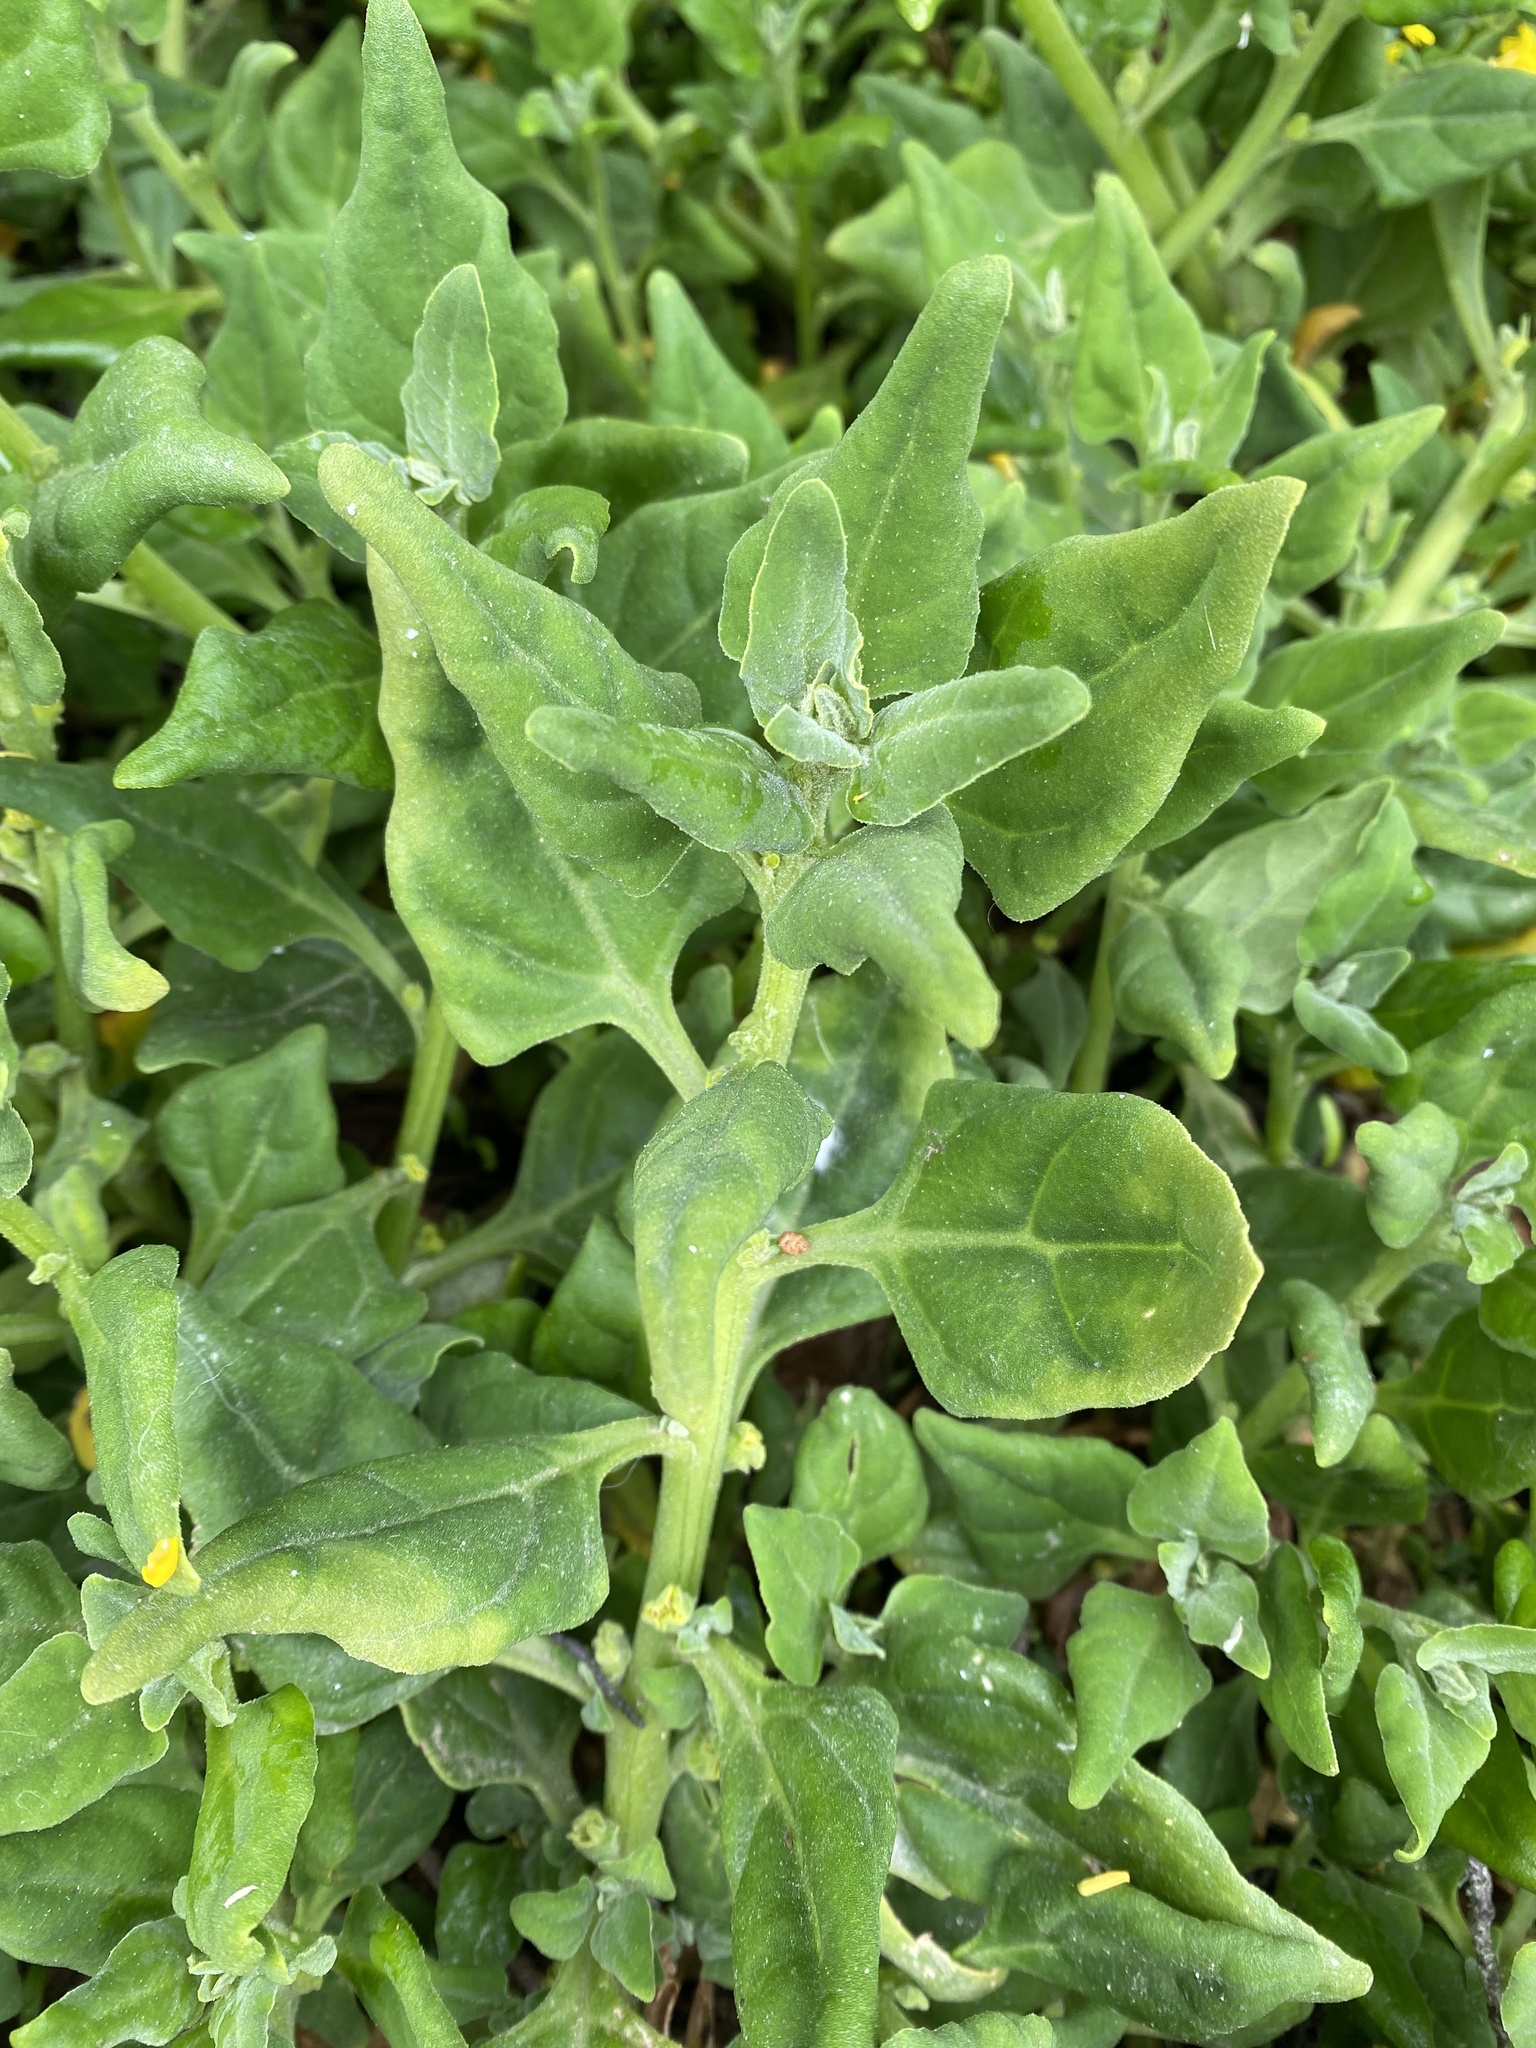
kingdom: Plantae
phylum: Tracheophyta
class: Magnoliopsida
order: Caryophyllales
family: Aizoaceae
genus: Tetragonia
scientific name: Tetragonia tetragonoides
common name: New zealand-spinach
